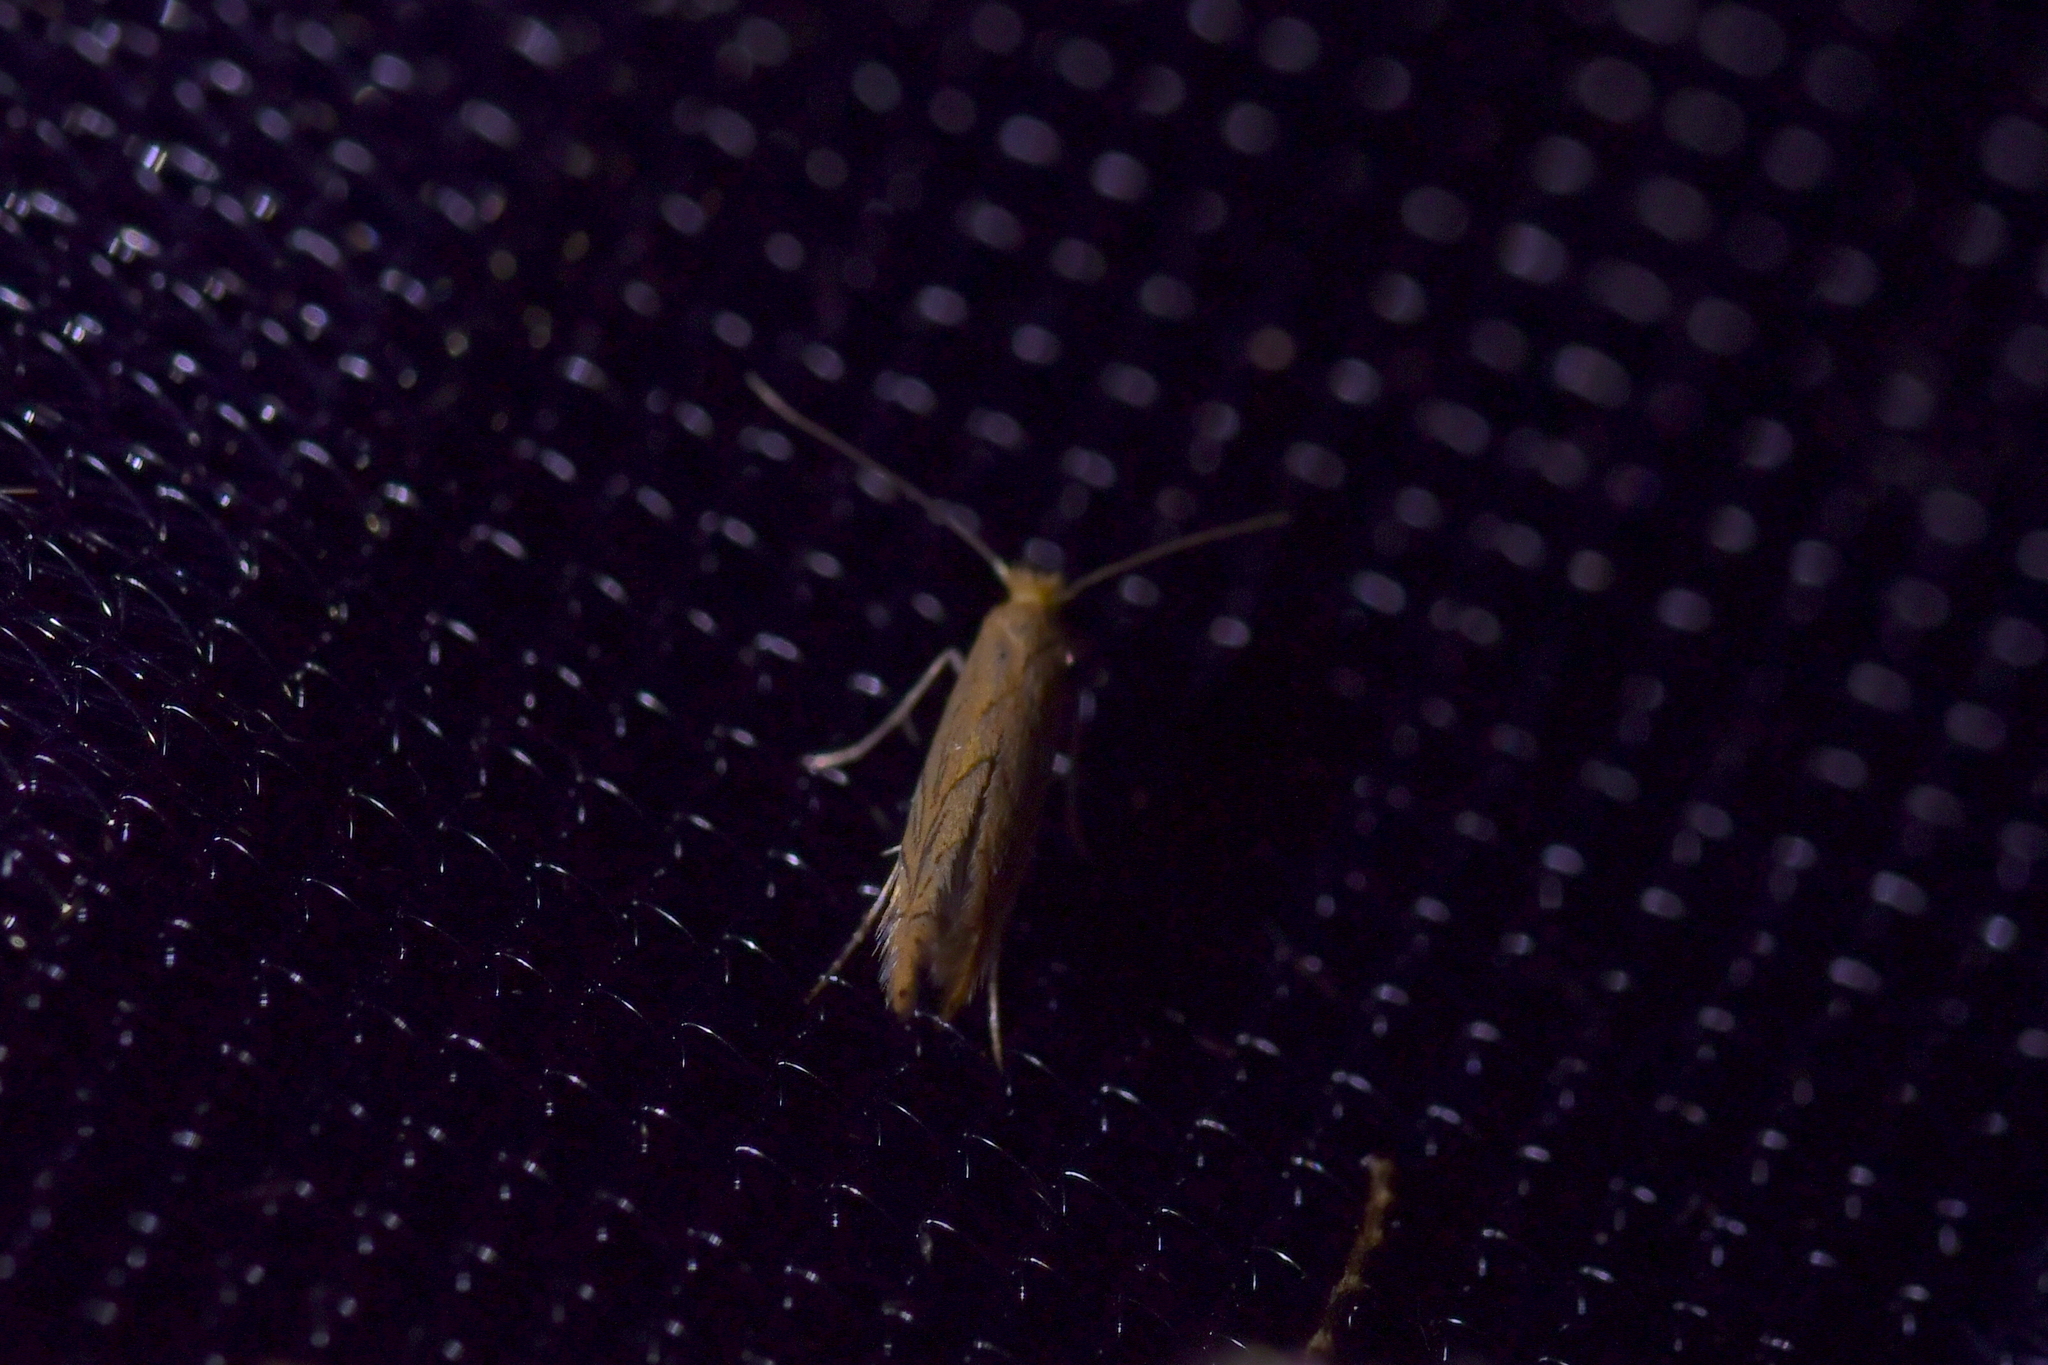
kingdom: Animalia
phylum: Arthropoda
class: Insecta
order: Lepidoptera
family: Gracillariidae
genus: Phyllonorycter
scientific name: Phyllonorycter messaniella
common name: Garden midget
